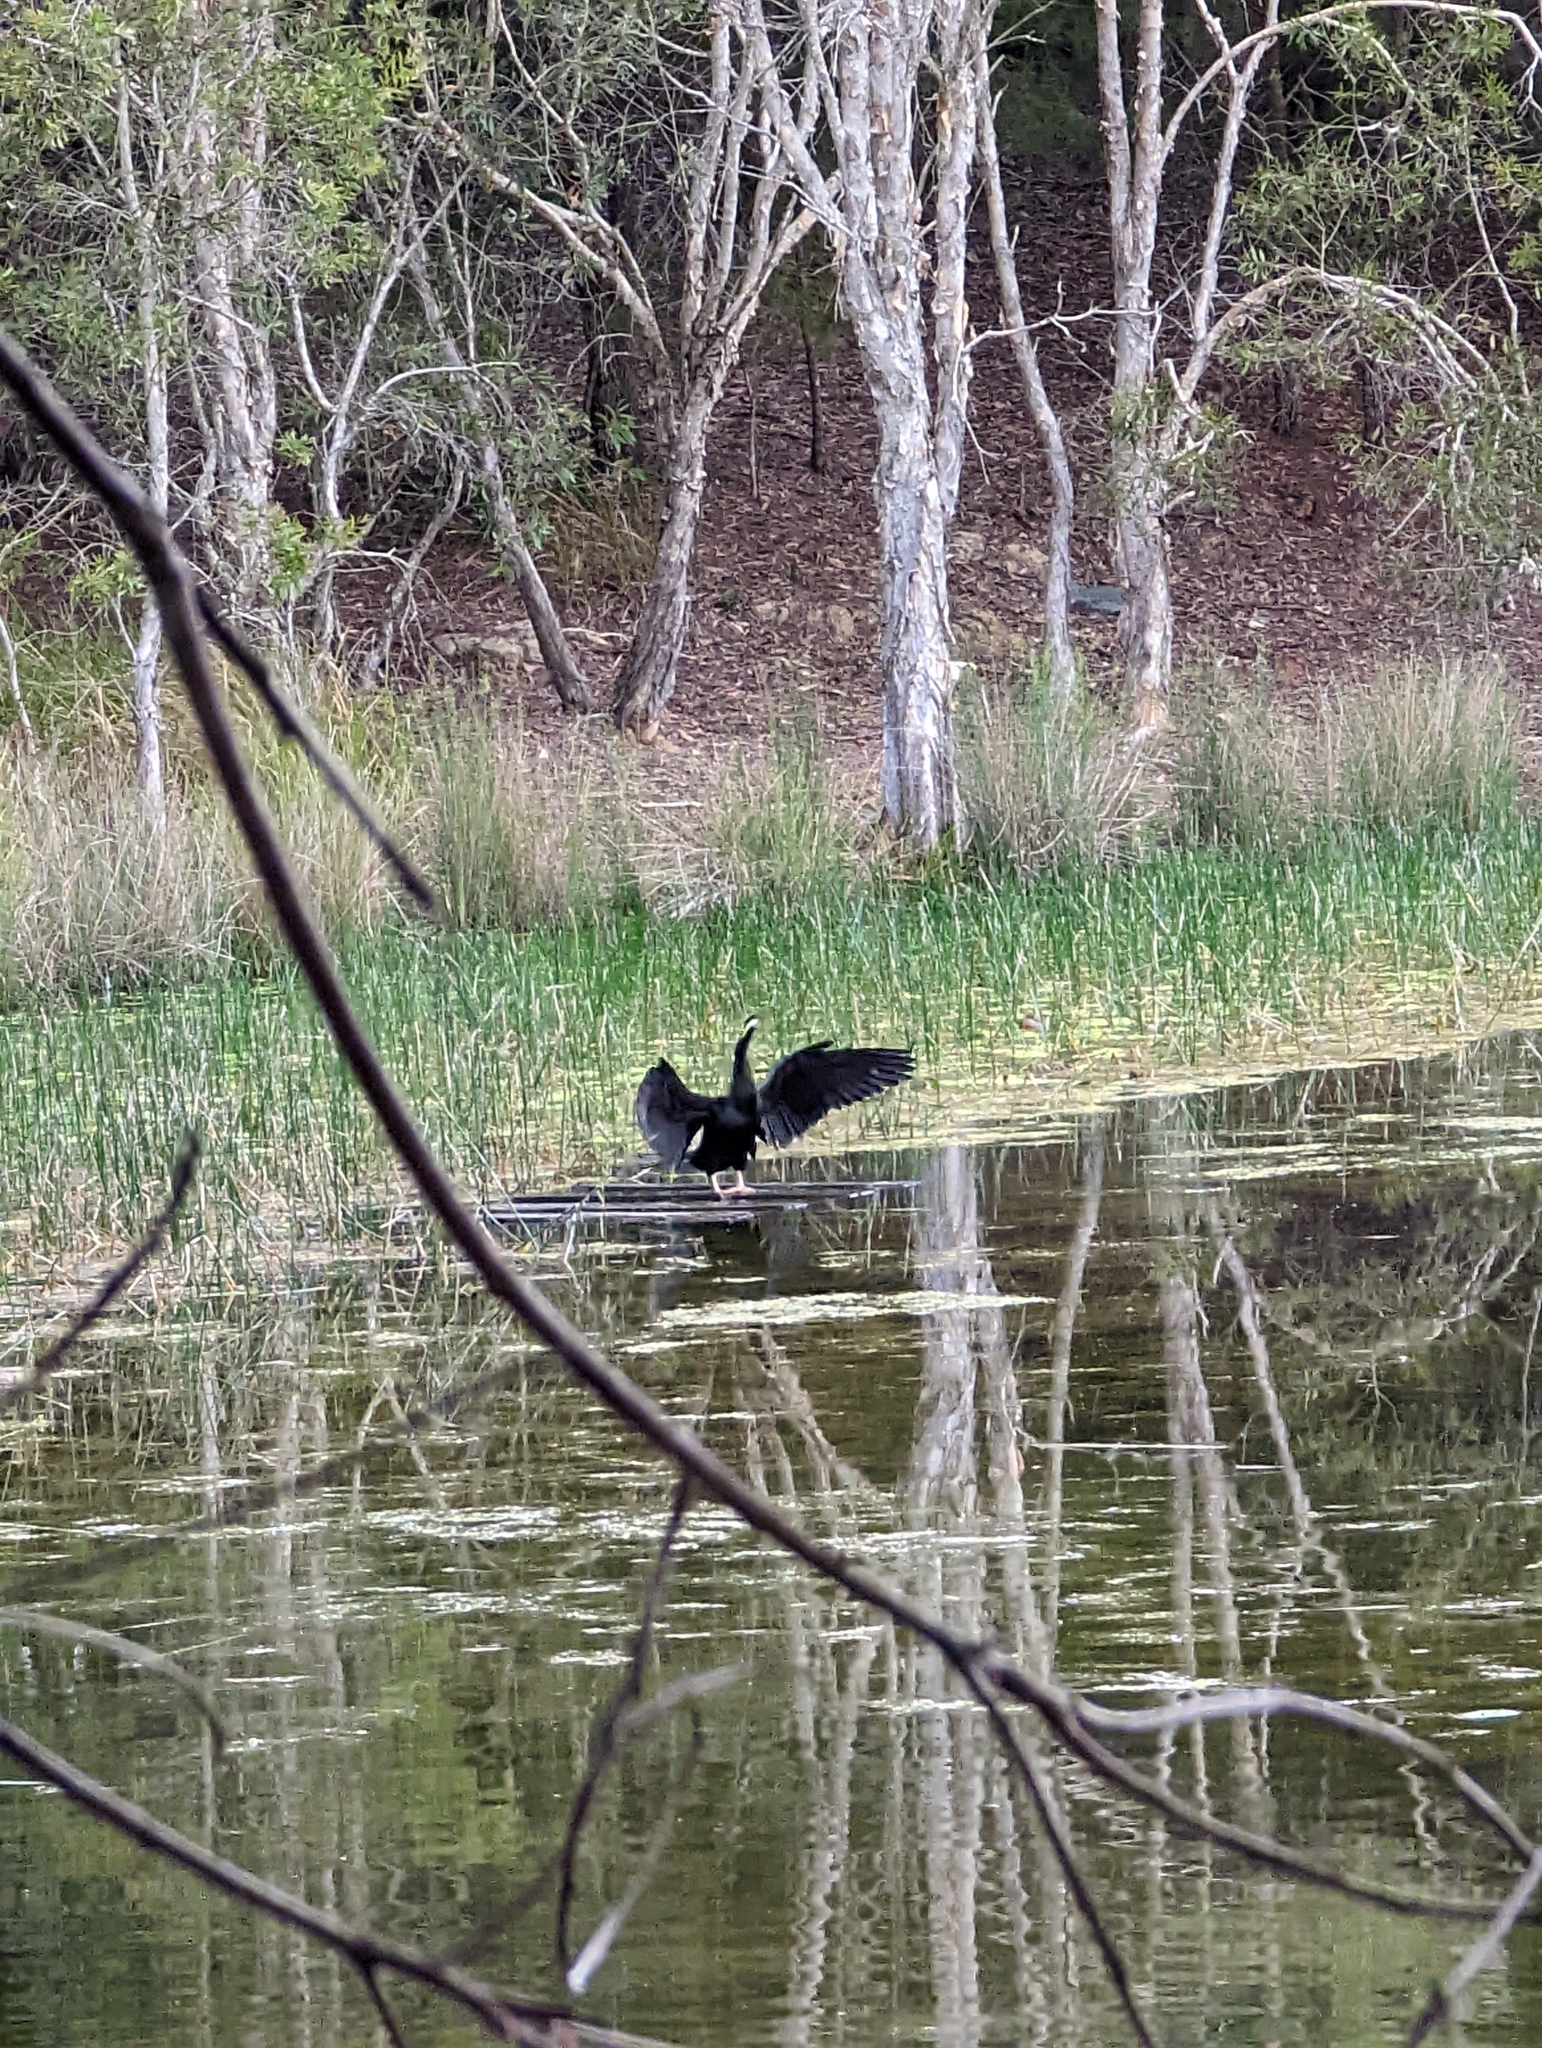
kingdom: Animalia
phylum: Chordata
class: Aves
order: Suliformes
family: Anhingidae
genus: Anhinga
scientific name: Anhinga novaehollandiae
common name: Australasian darter
